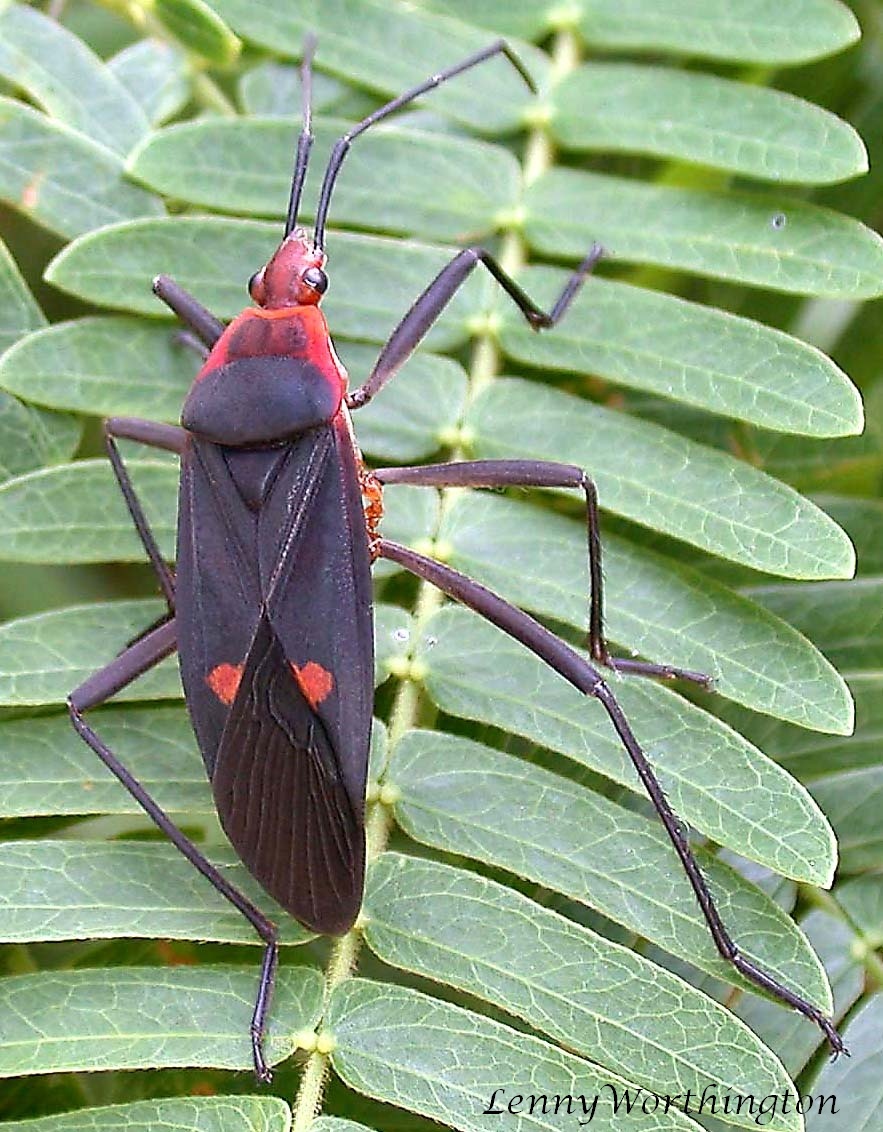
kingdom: Animalia
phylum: Arthropoda
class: Insecta
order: Hemiptera
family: Pyrrhocoridae
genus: Melamphaus
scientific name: Melamphaus faber
